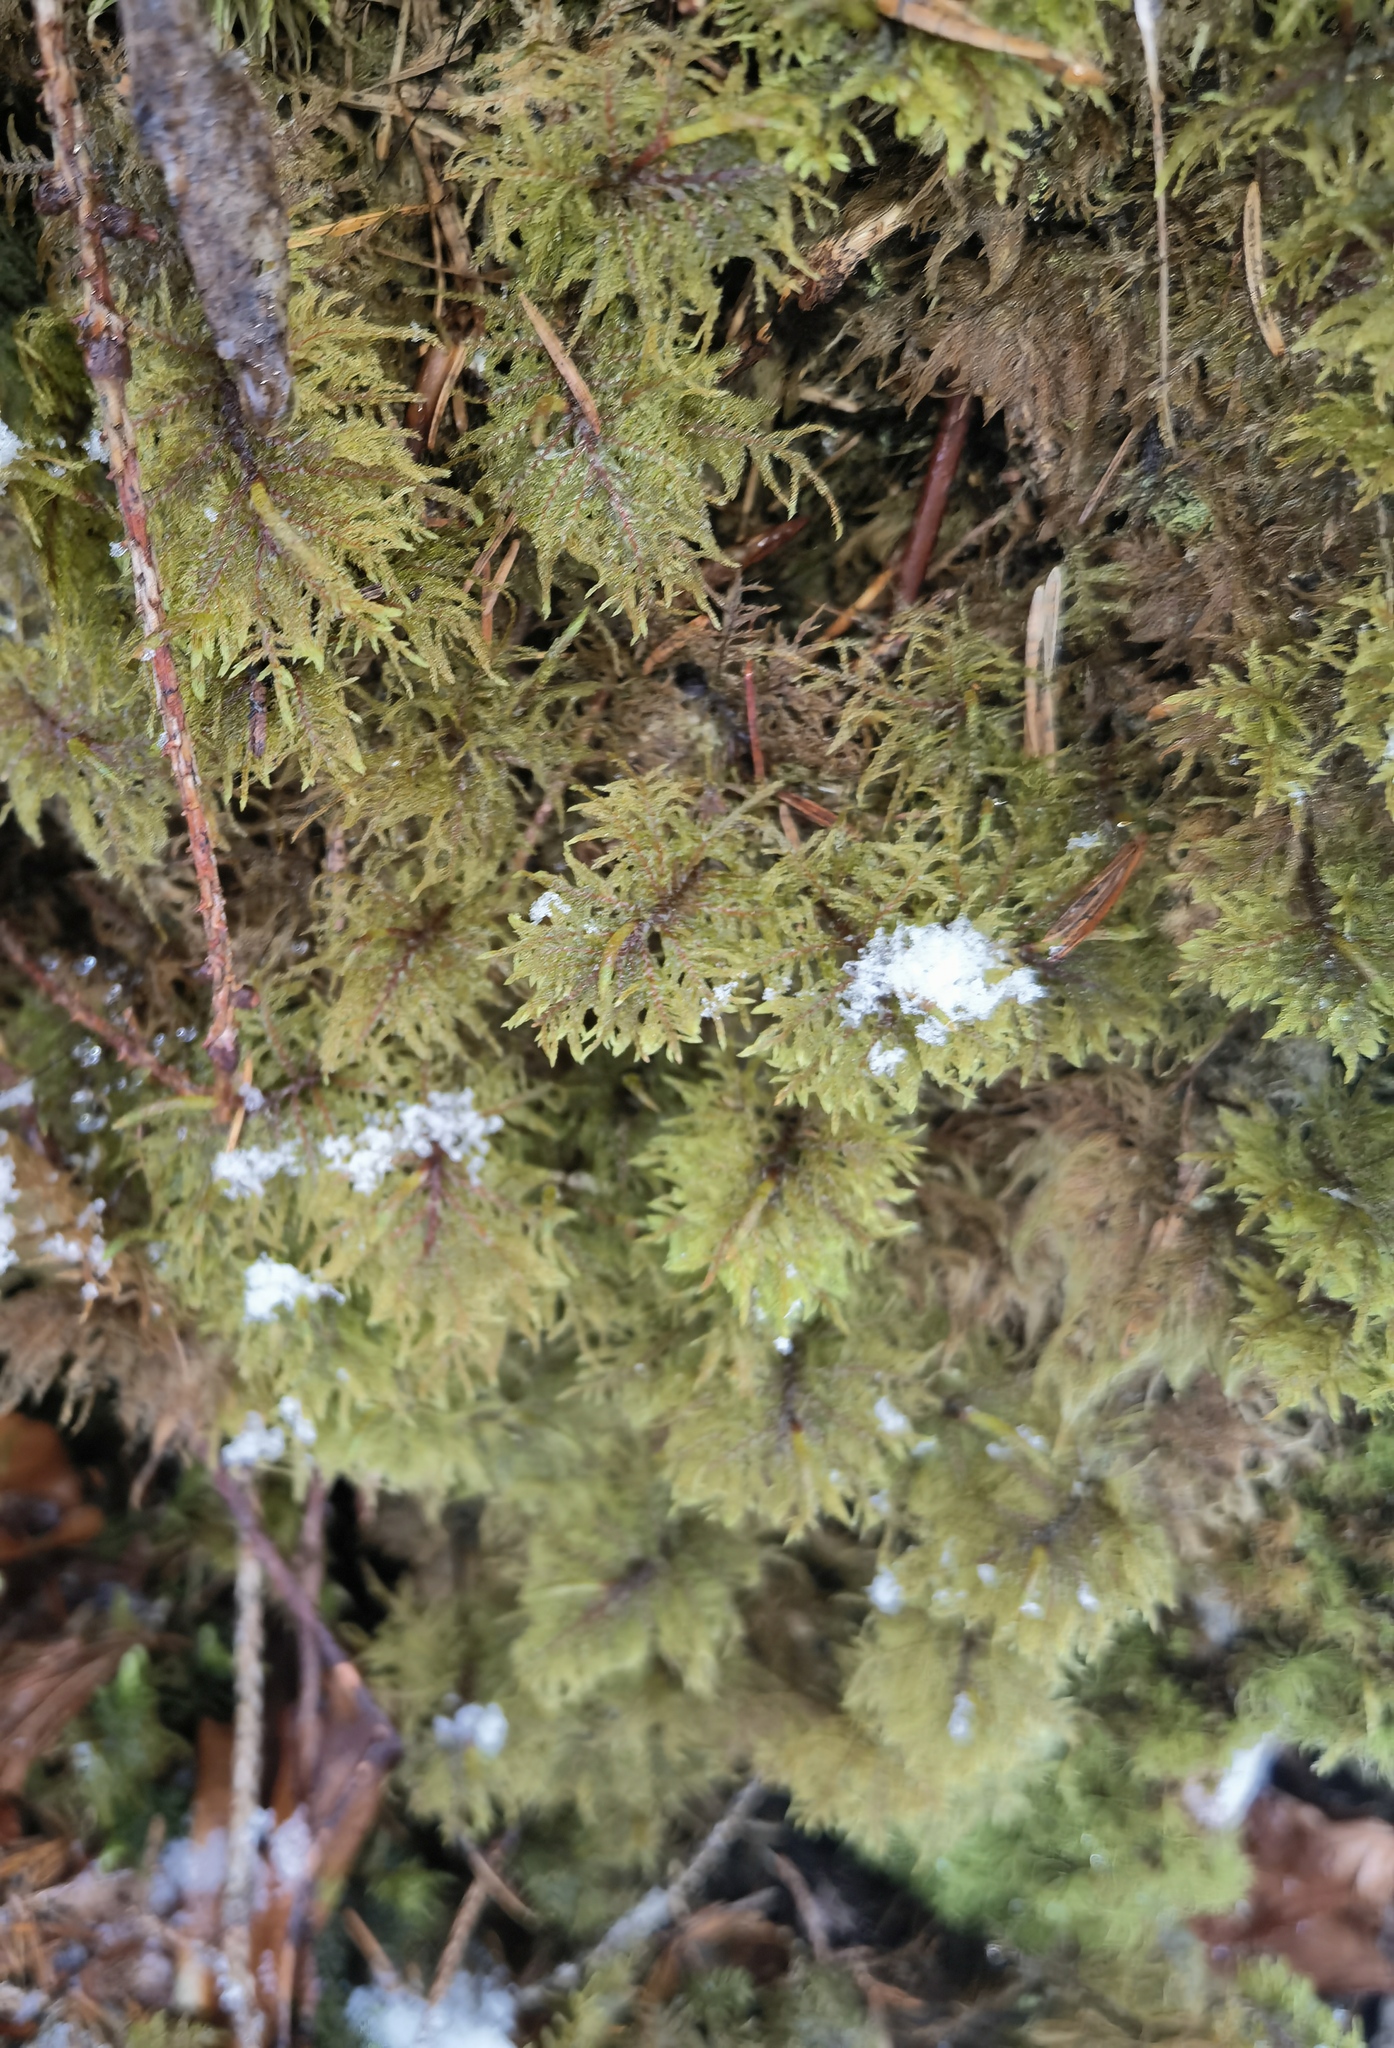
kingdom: Plantae
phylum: Bryophyta
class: Bryopsida
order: Hypnales
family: Hylocomiaceae
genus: Hylocomium
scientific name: Hylocomium splendens
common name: Stairstep moss
